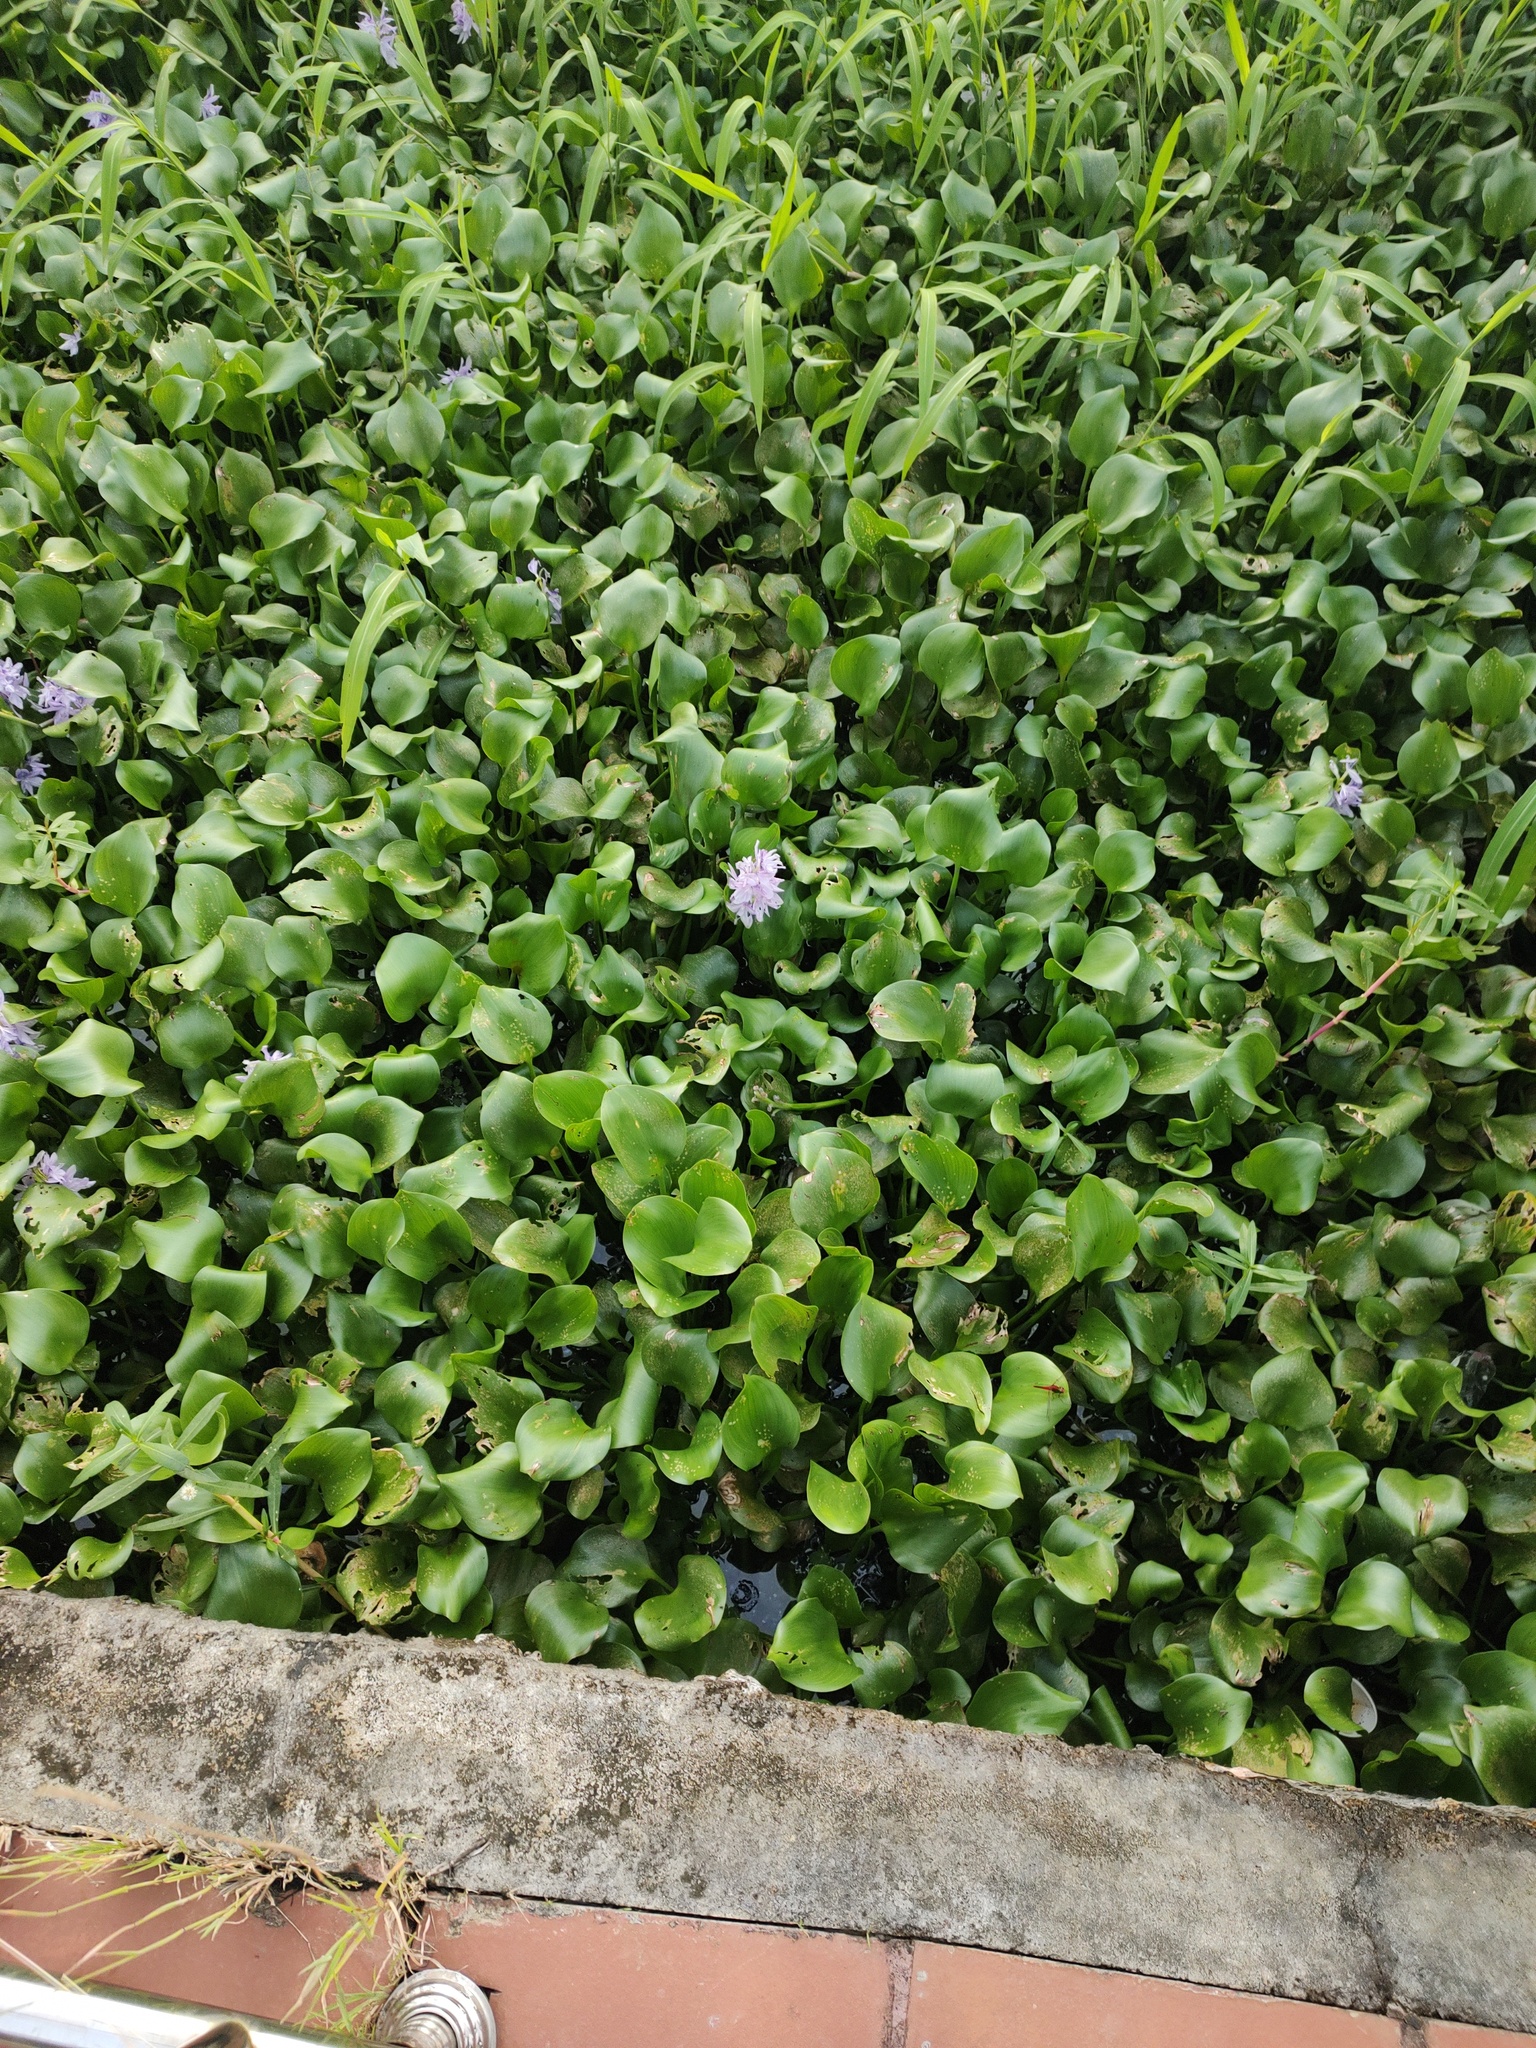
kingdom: Plantae
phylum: Tracheophyta
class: Liliopsida
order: Commelinales
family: Pontederiaceae
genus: Pontederia
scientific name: Pontederia crassipes
